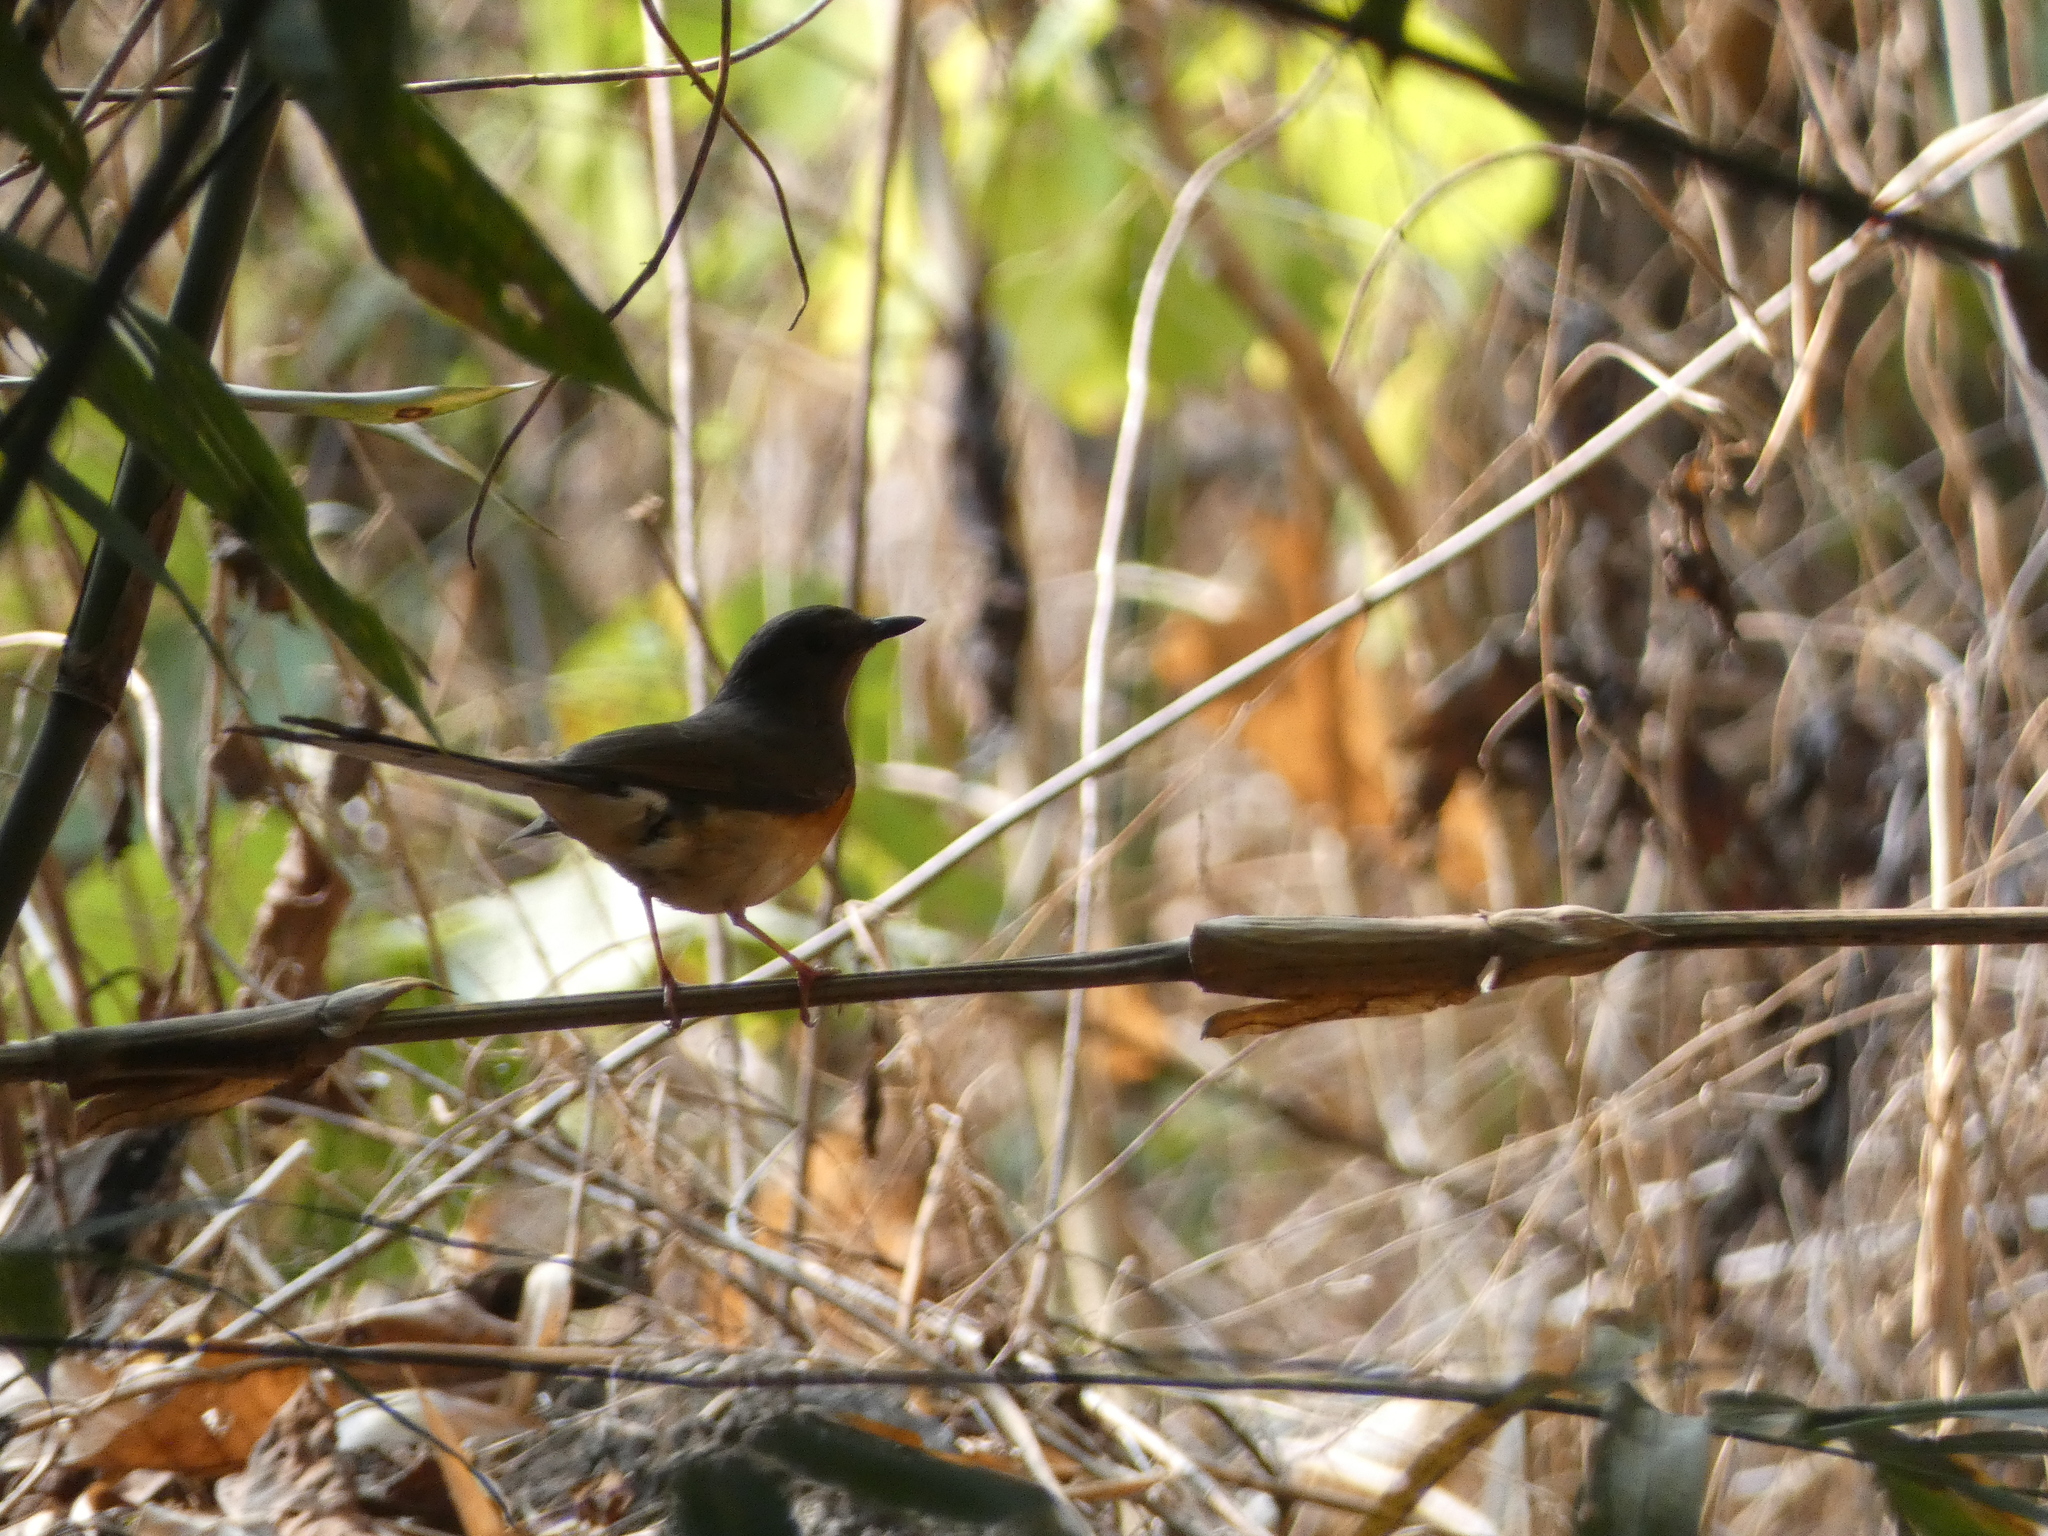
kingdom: Animalia
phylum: Chordata
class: Aves
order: Passeriformes
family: Muscicapidae
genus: Copsychus
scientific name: Copsychus malabaricus
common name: White-rumped shama
